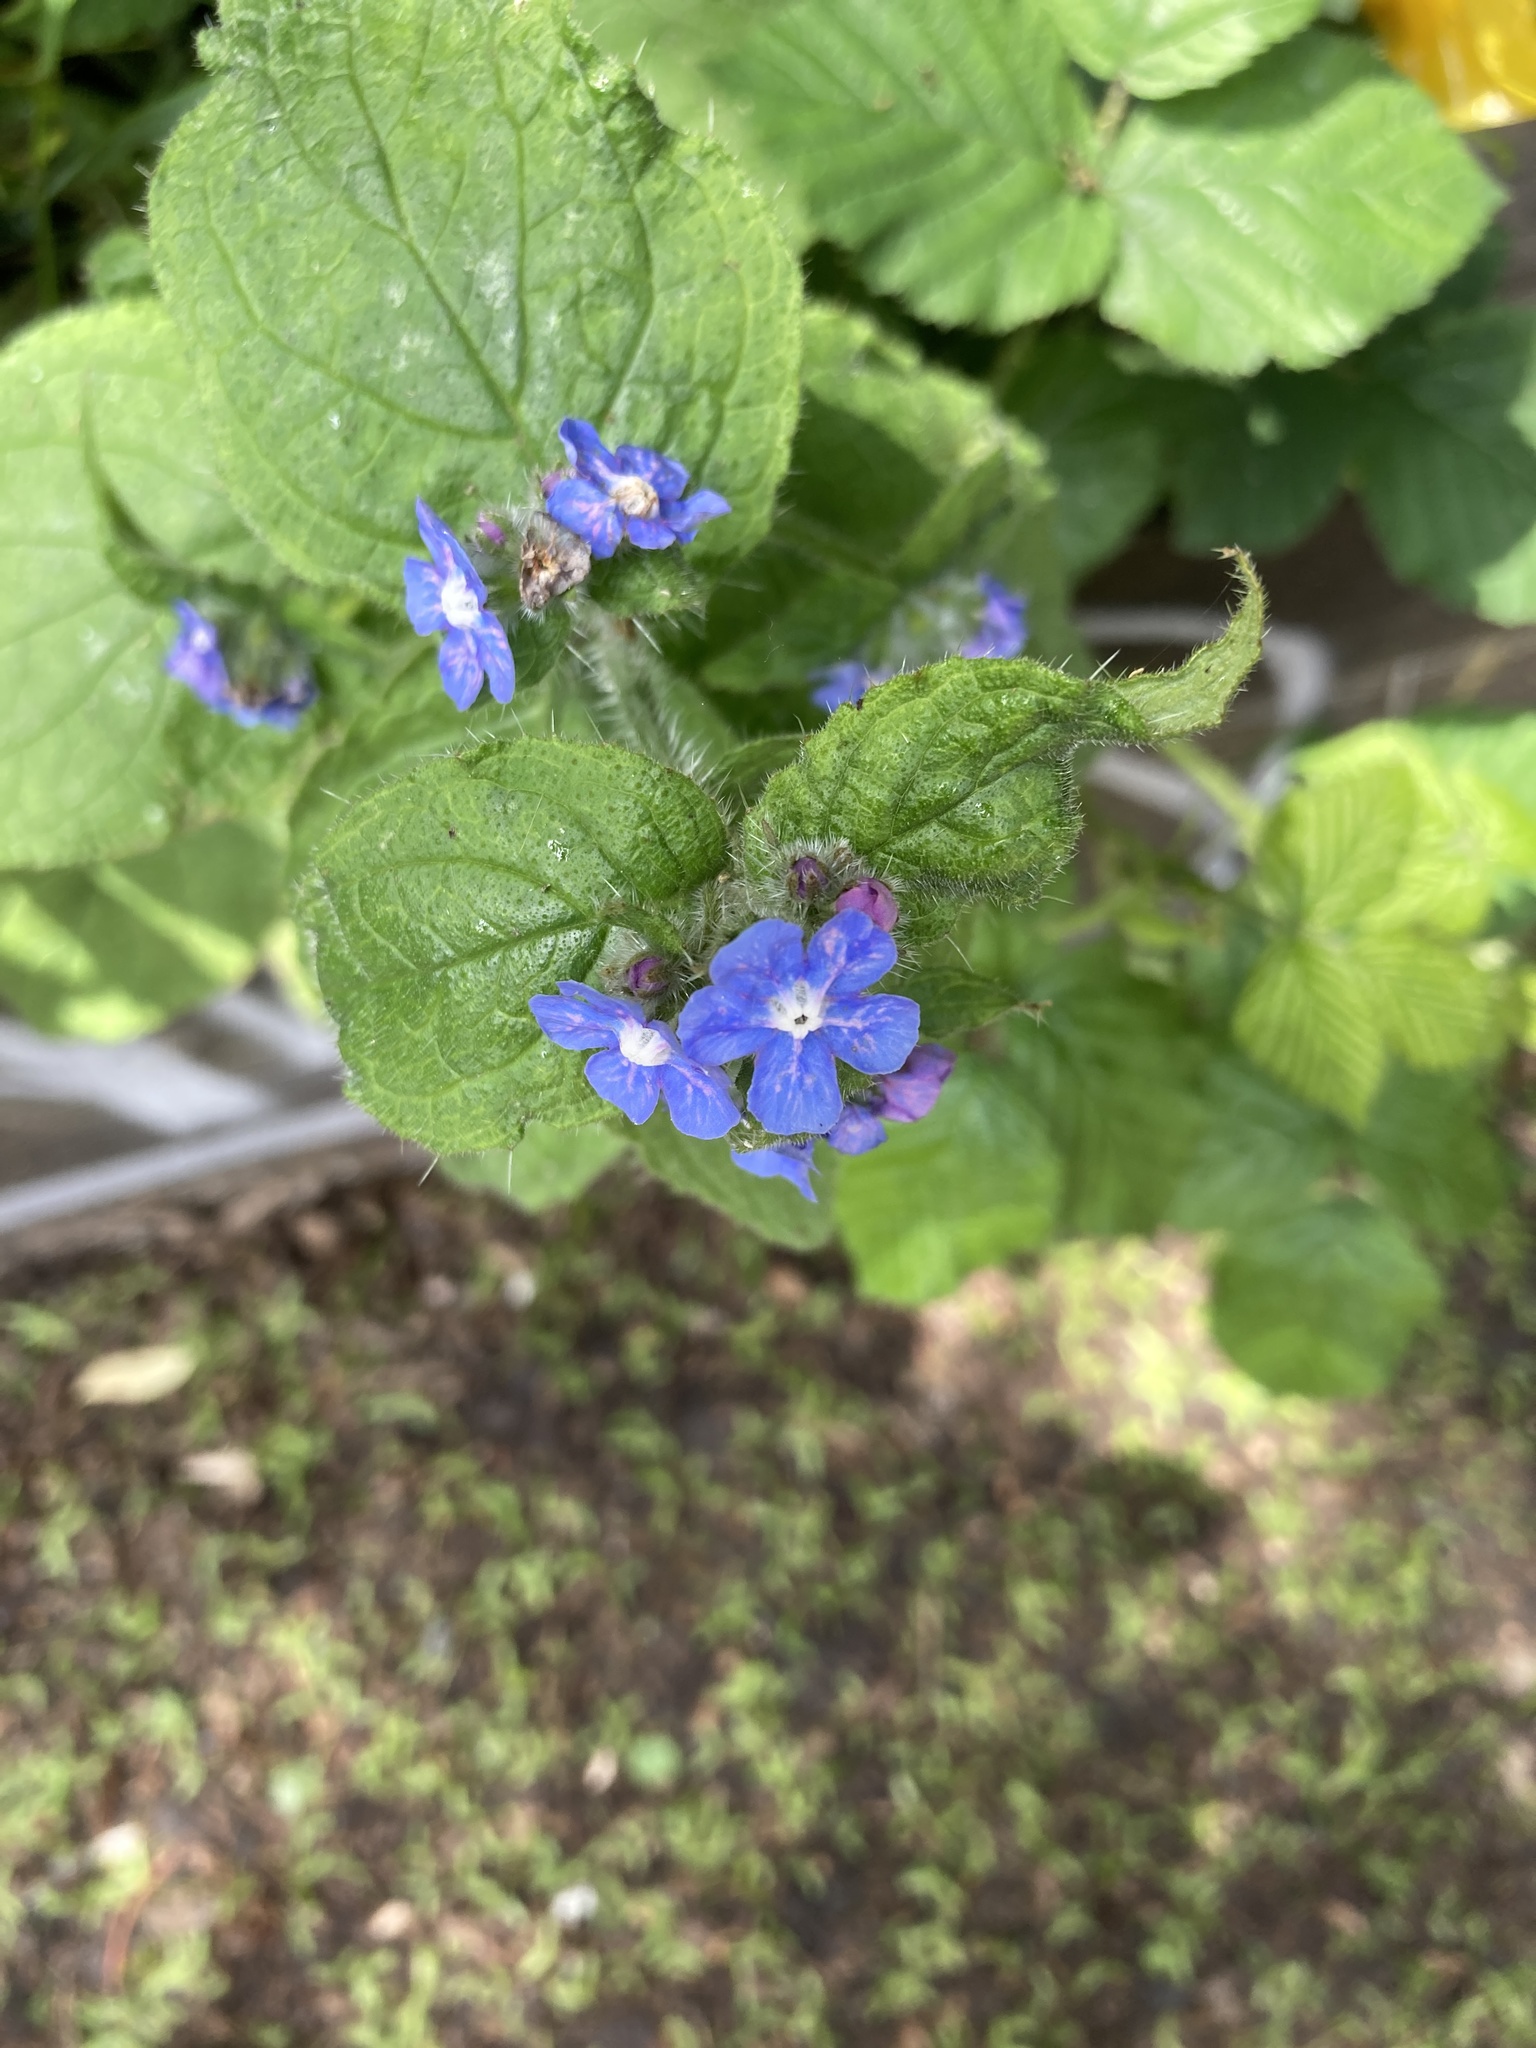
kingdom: Plantae
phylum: Tracheophyta
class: Magnoliopsida
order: Boraginales
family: Boraginaceae
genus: Pentaglottis
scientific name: Pentaglottis sempervirens
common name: Green alkanet
